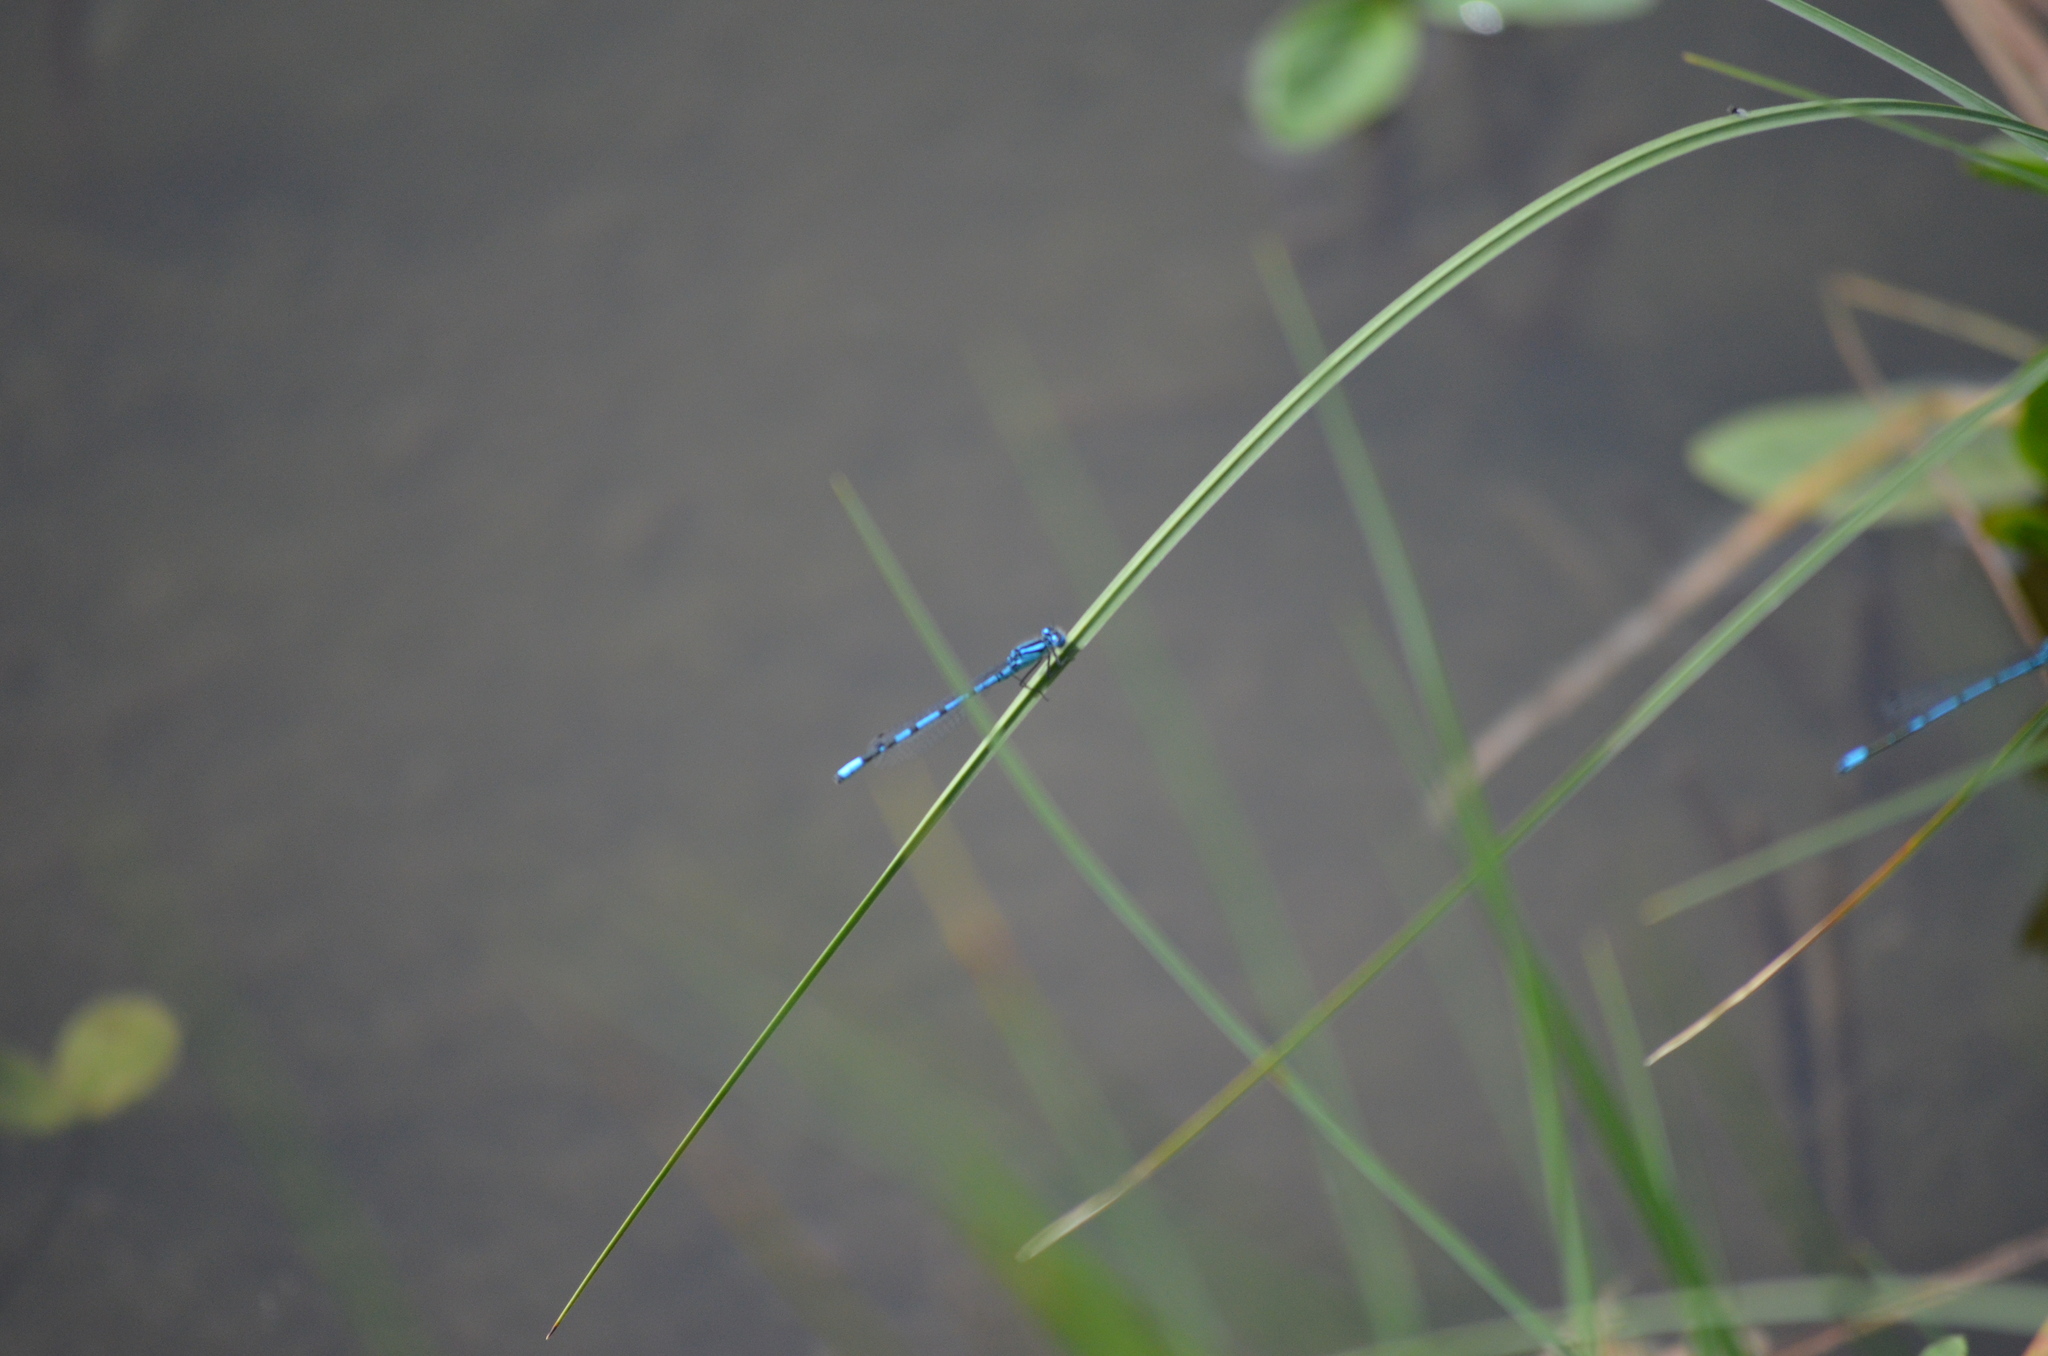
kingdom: Animalia
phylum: Arthropoda
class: Insecta
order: Odonata
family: Coenagrionidae
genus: Enallagma
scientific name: Enallagma cyathigerum
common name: Common blue damselfly
